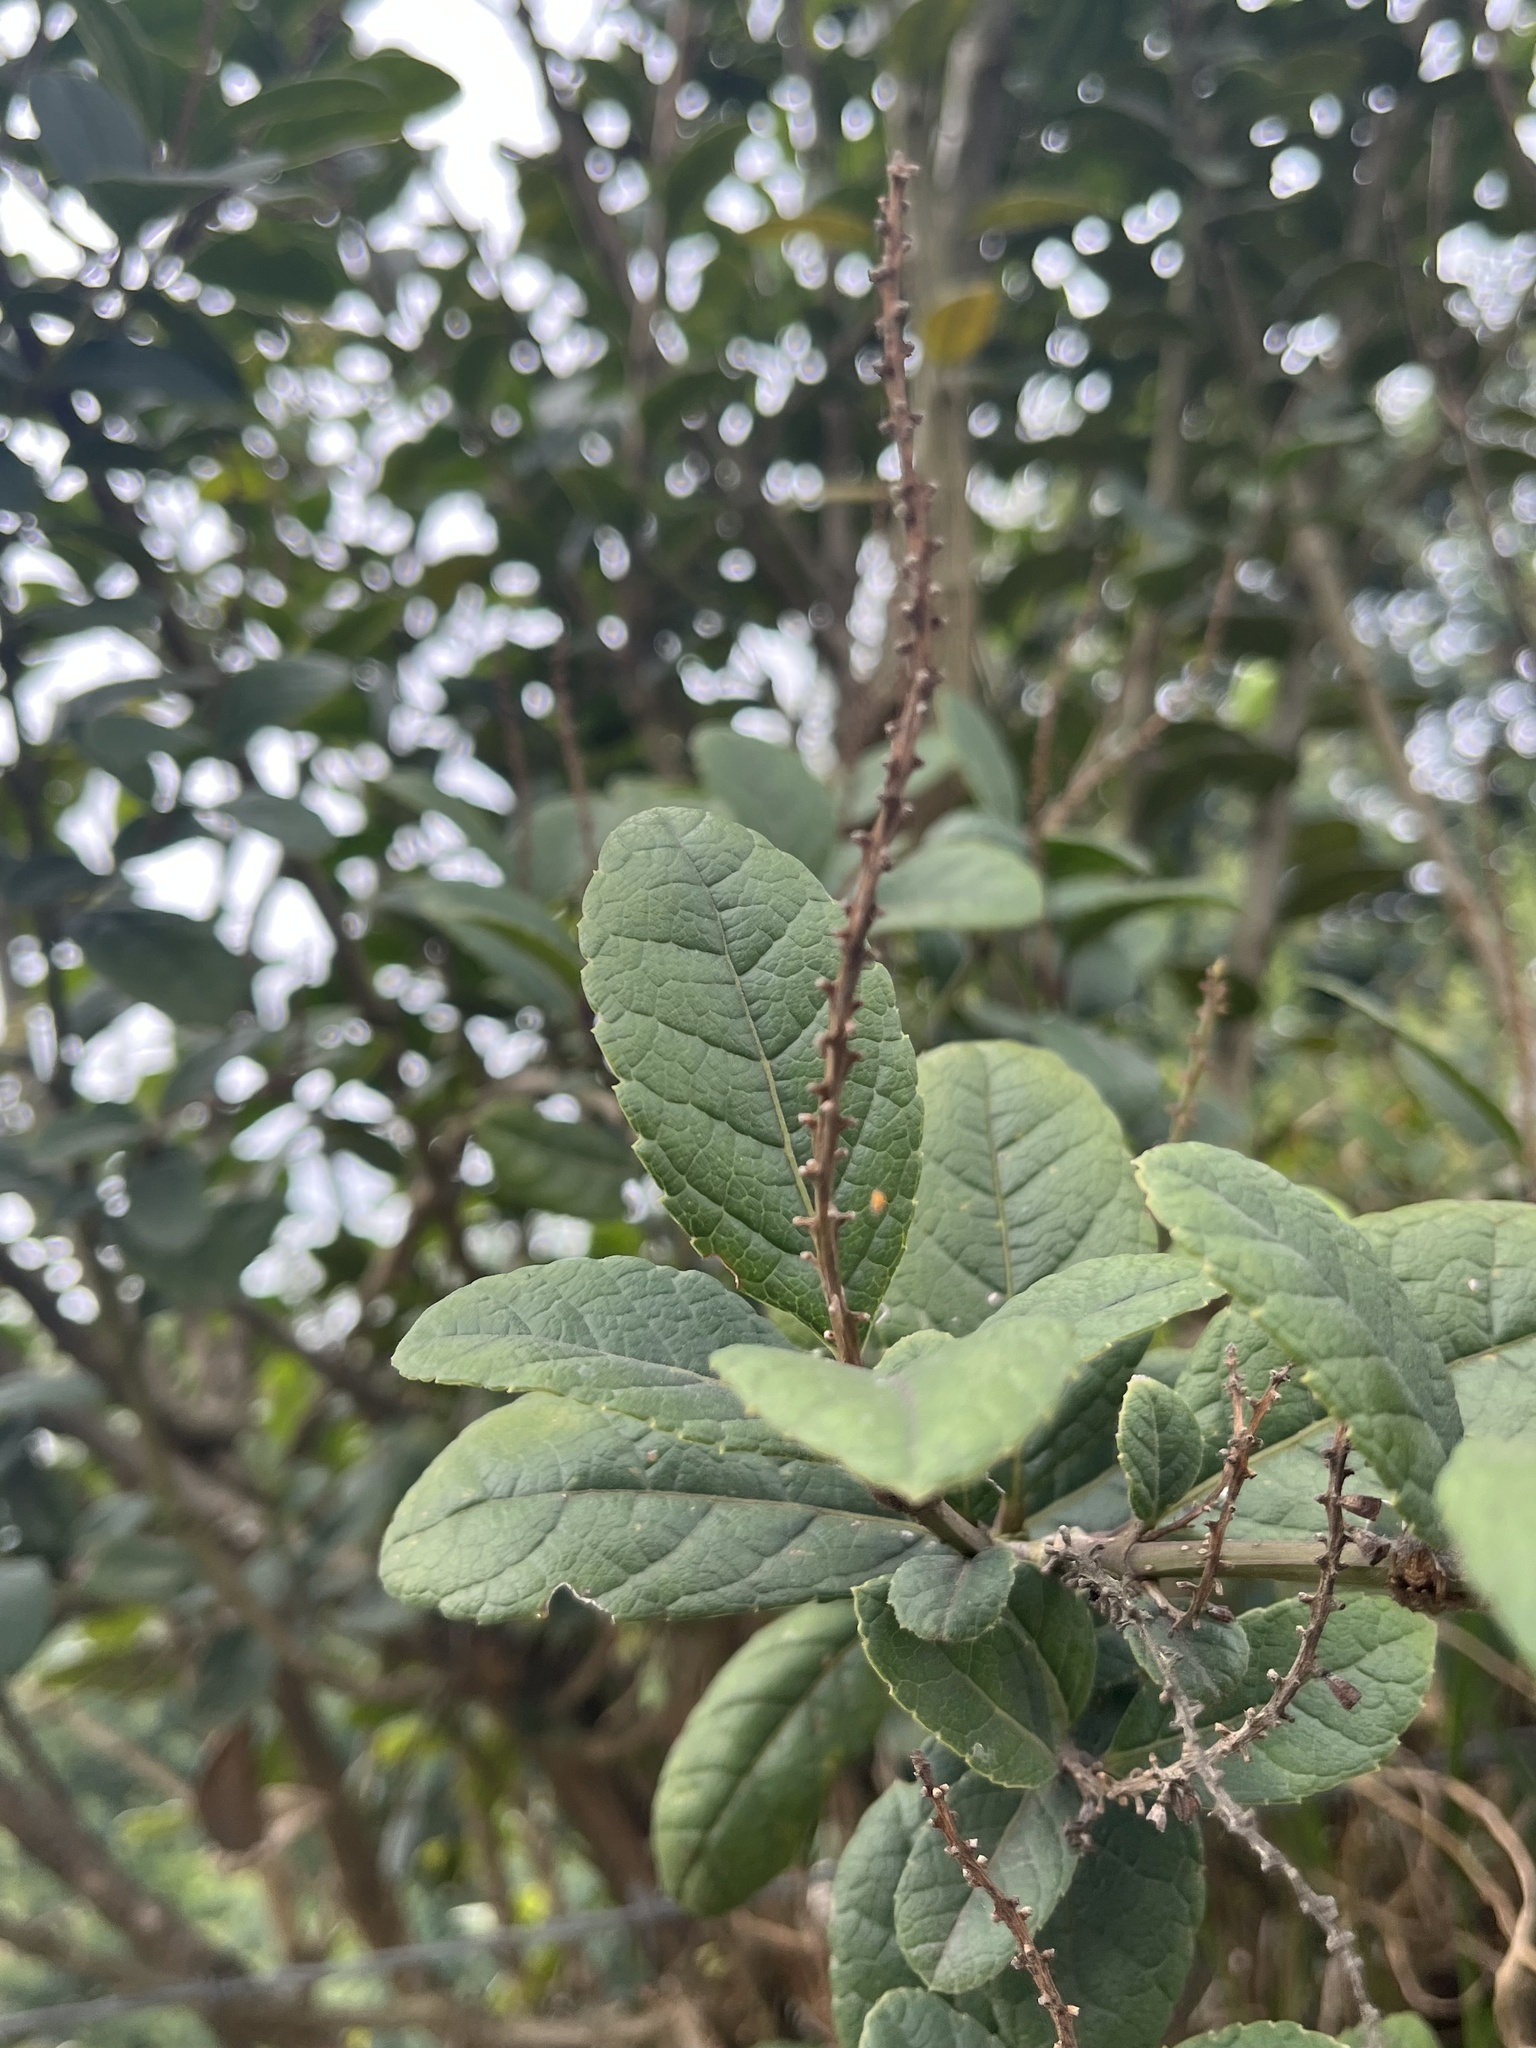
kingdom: Plantae
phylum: Tracheophyta
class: Magnoliopsida
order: Lamiales
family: Verbenaceae
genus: Citharexylum
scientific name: Citharexylum reticulatum
